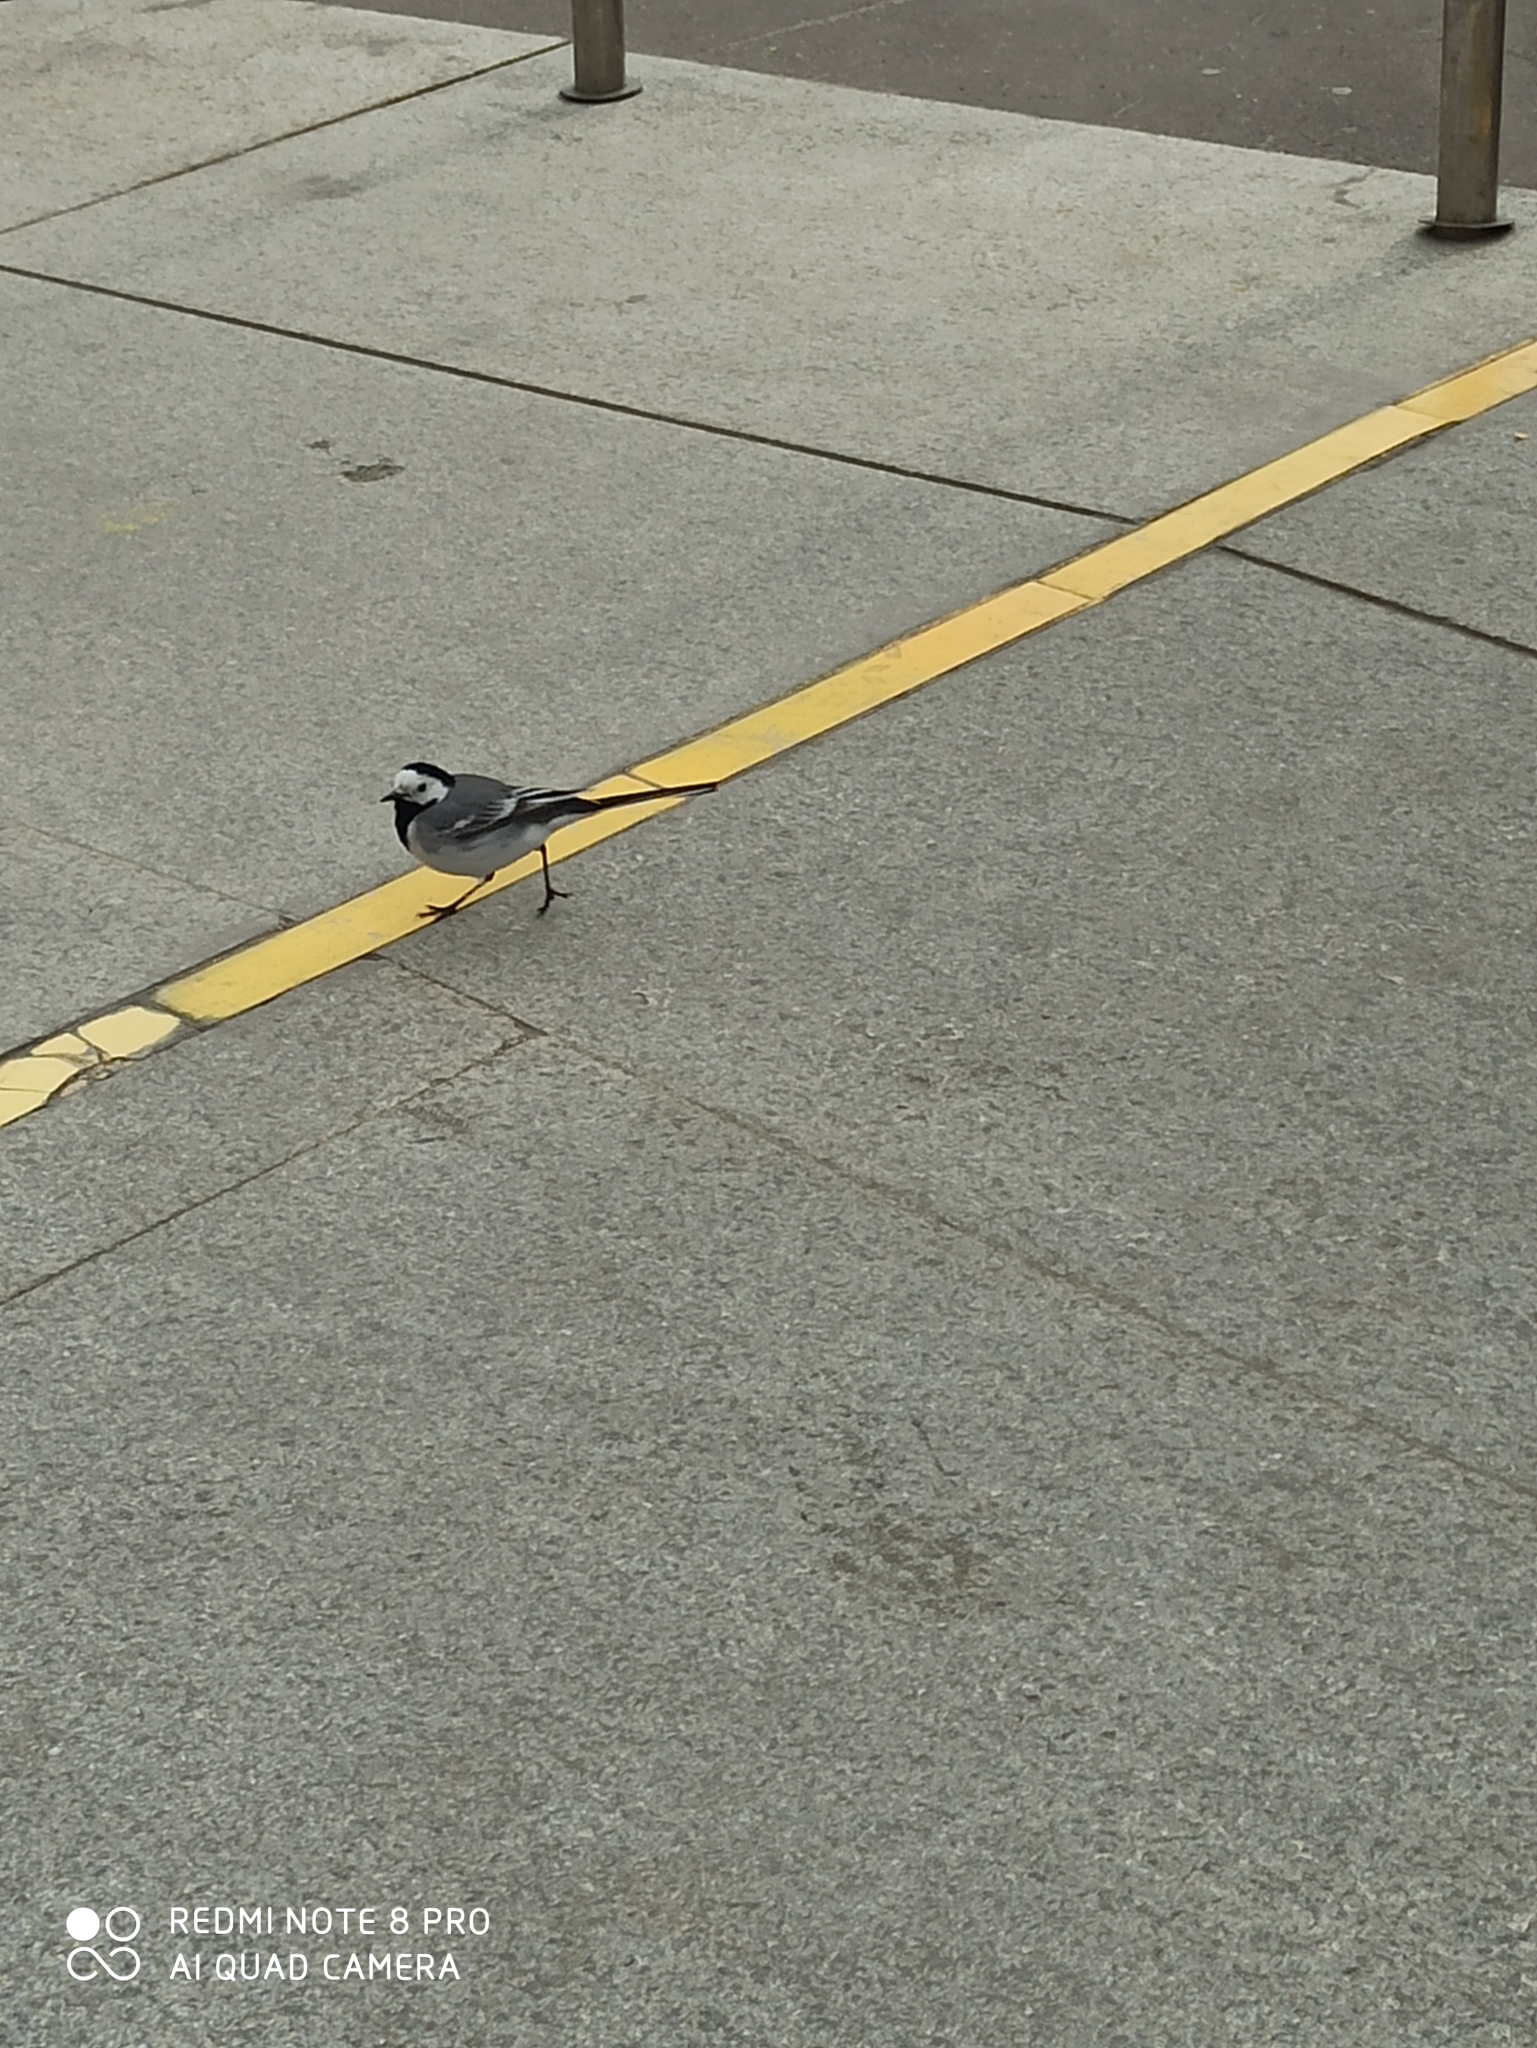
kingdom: Animalia
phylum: Chordata
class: Aves
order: Passeriformes
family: Motacillidae
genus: Motacilla
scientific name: Motacilla alba
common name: White wagtail
